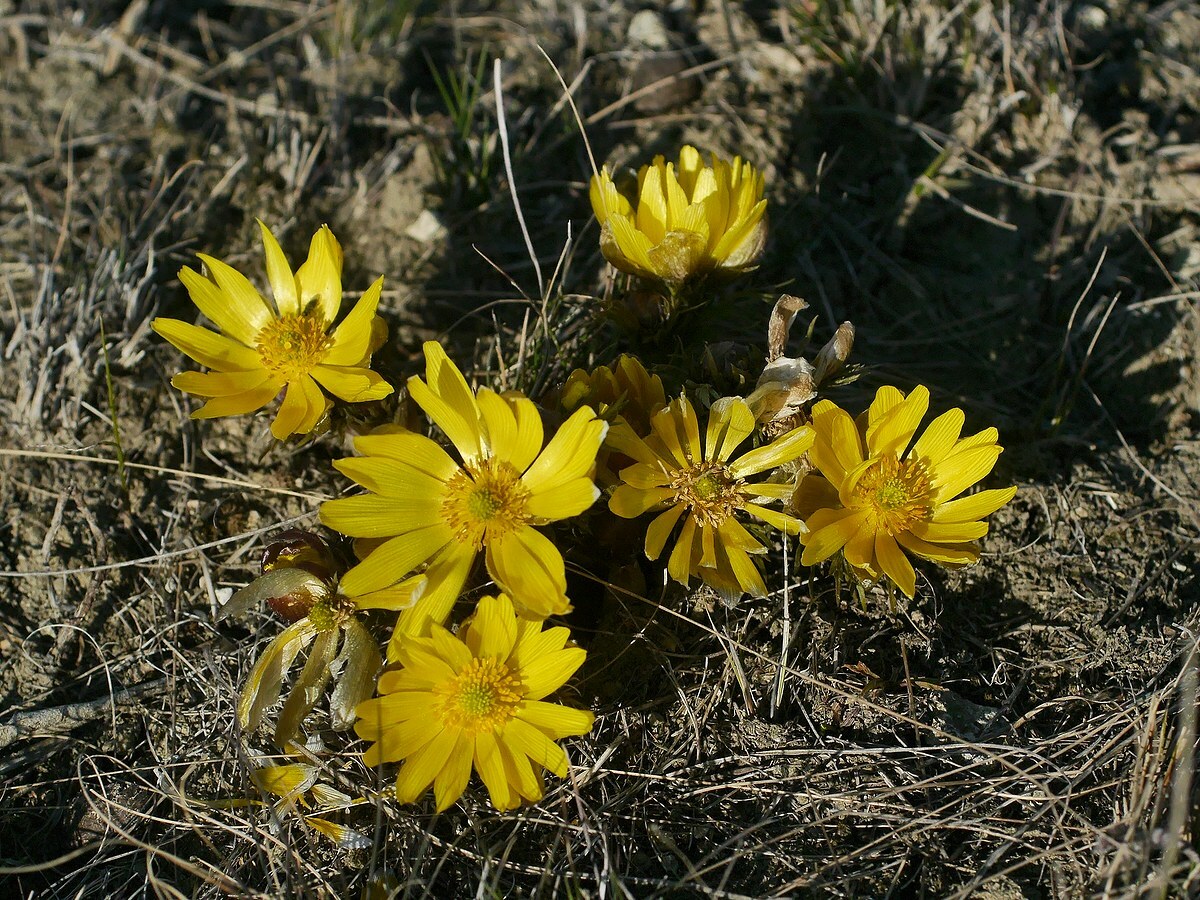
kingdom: Plantae
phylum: Tracheophyta
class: Magnoliopsida
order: Ranunculales
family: Ranunculaceae
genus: Adonis
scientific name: Adonis volgensis
